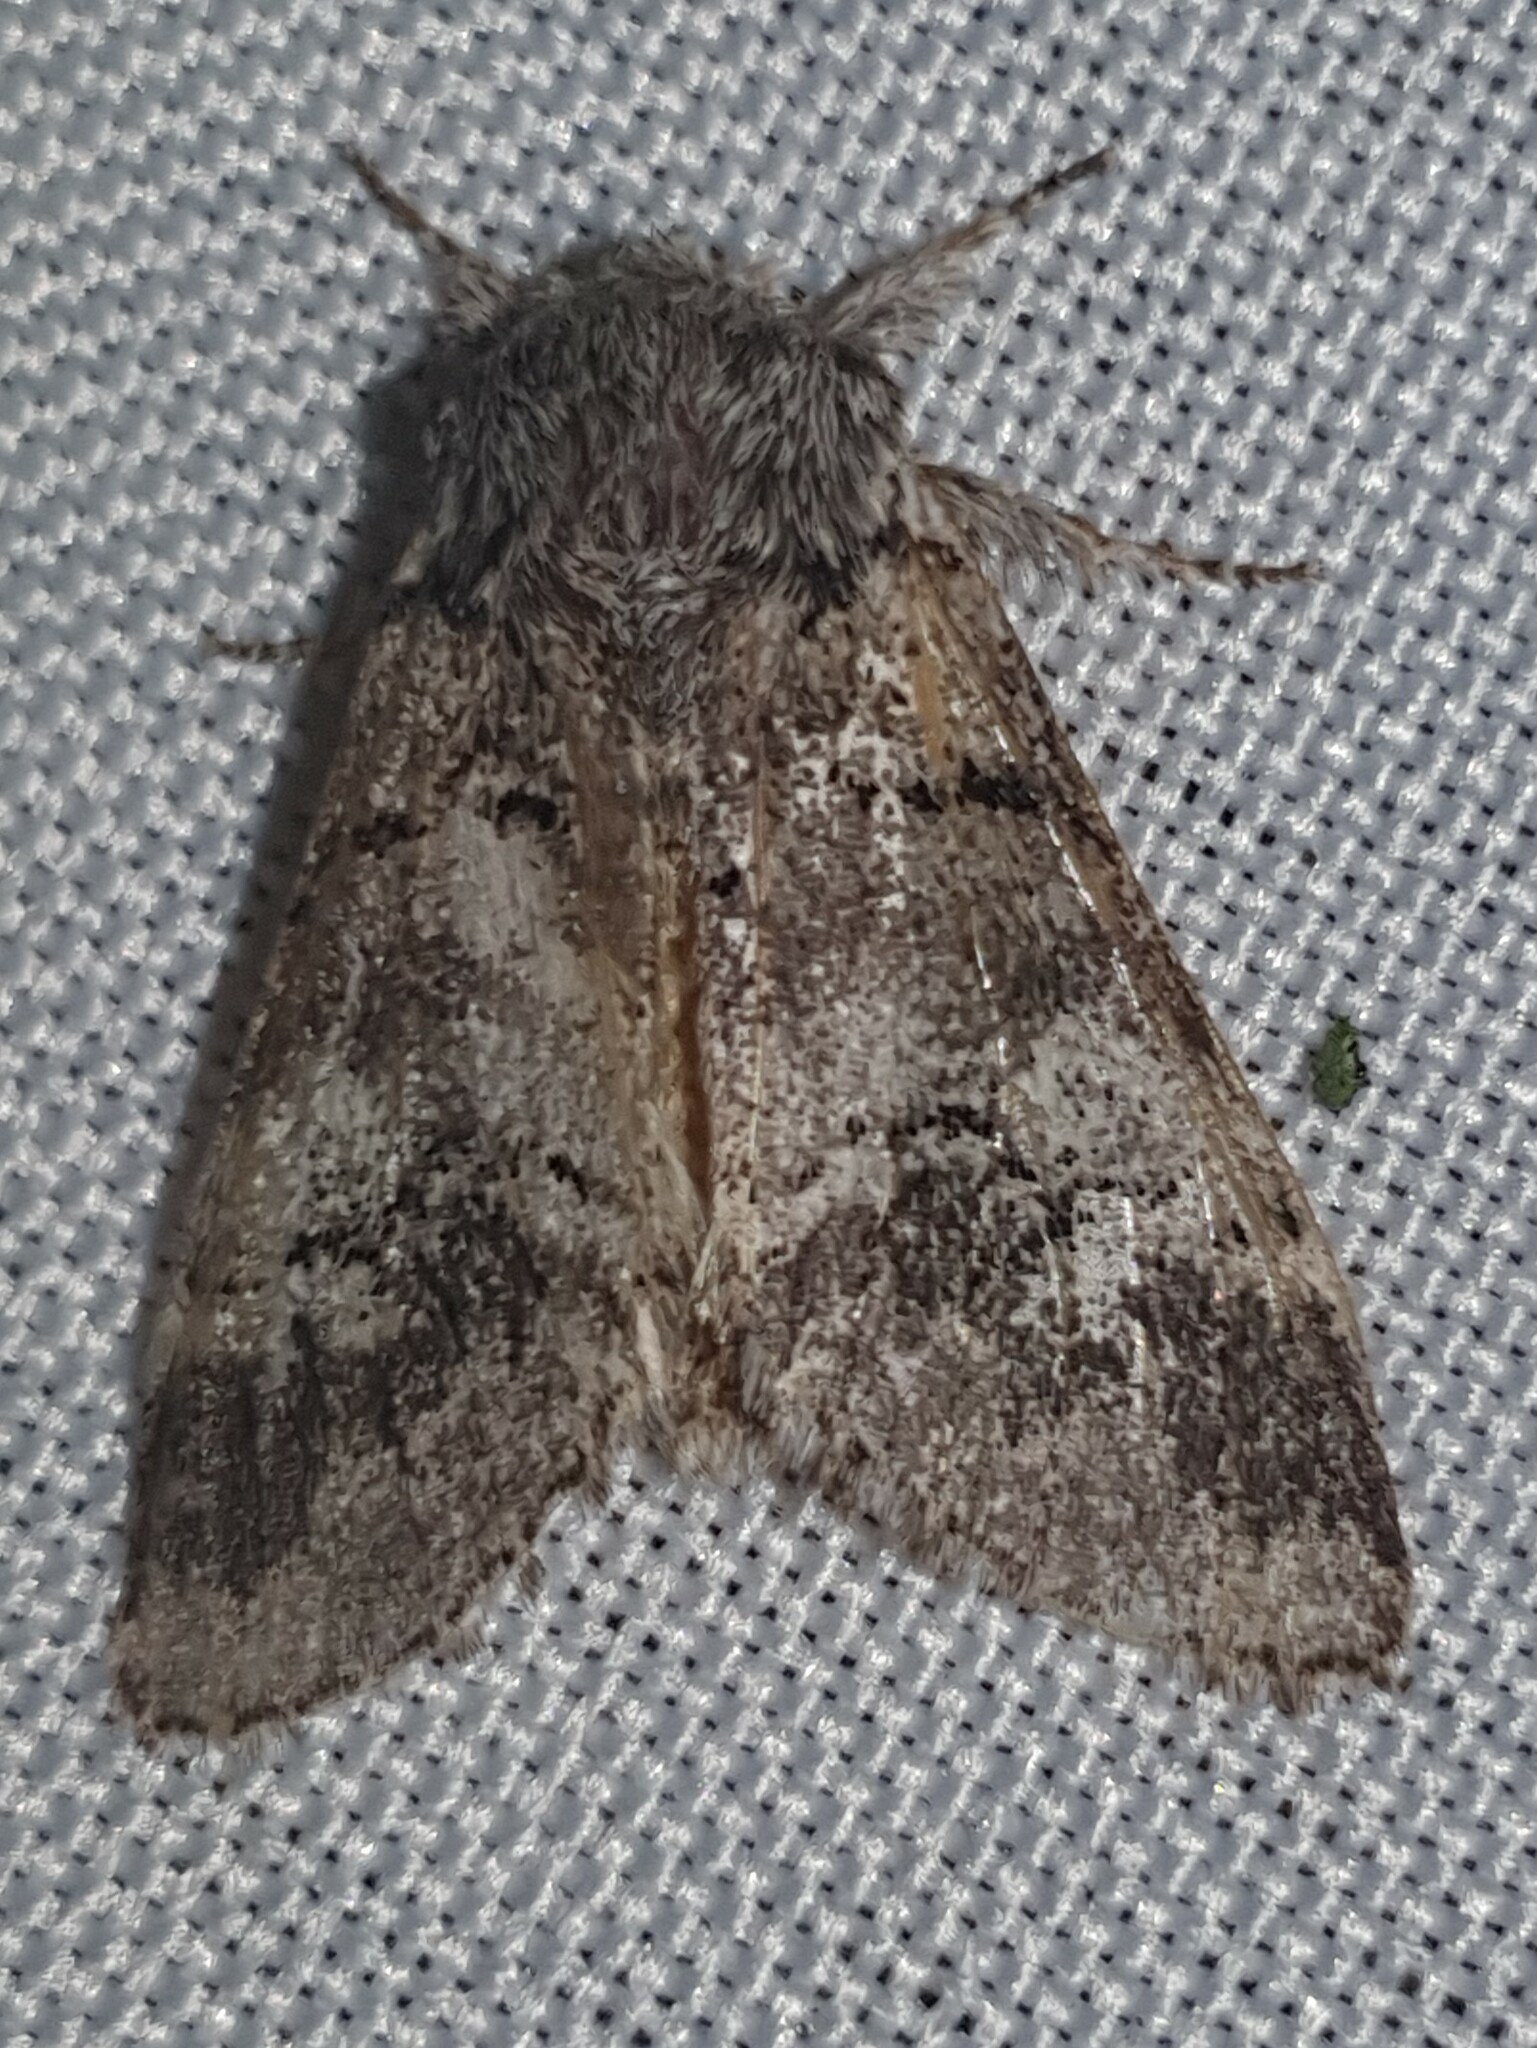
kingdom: Animalia
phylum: Arthropoda
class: Insecta
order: Lepidoptera
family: Notodontidae
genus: Drymonia
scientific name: Drymonia querna
